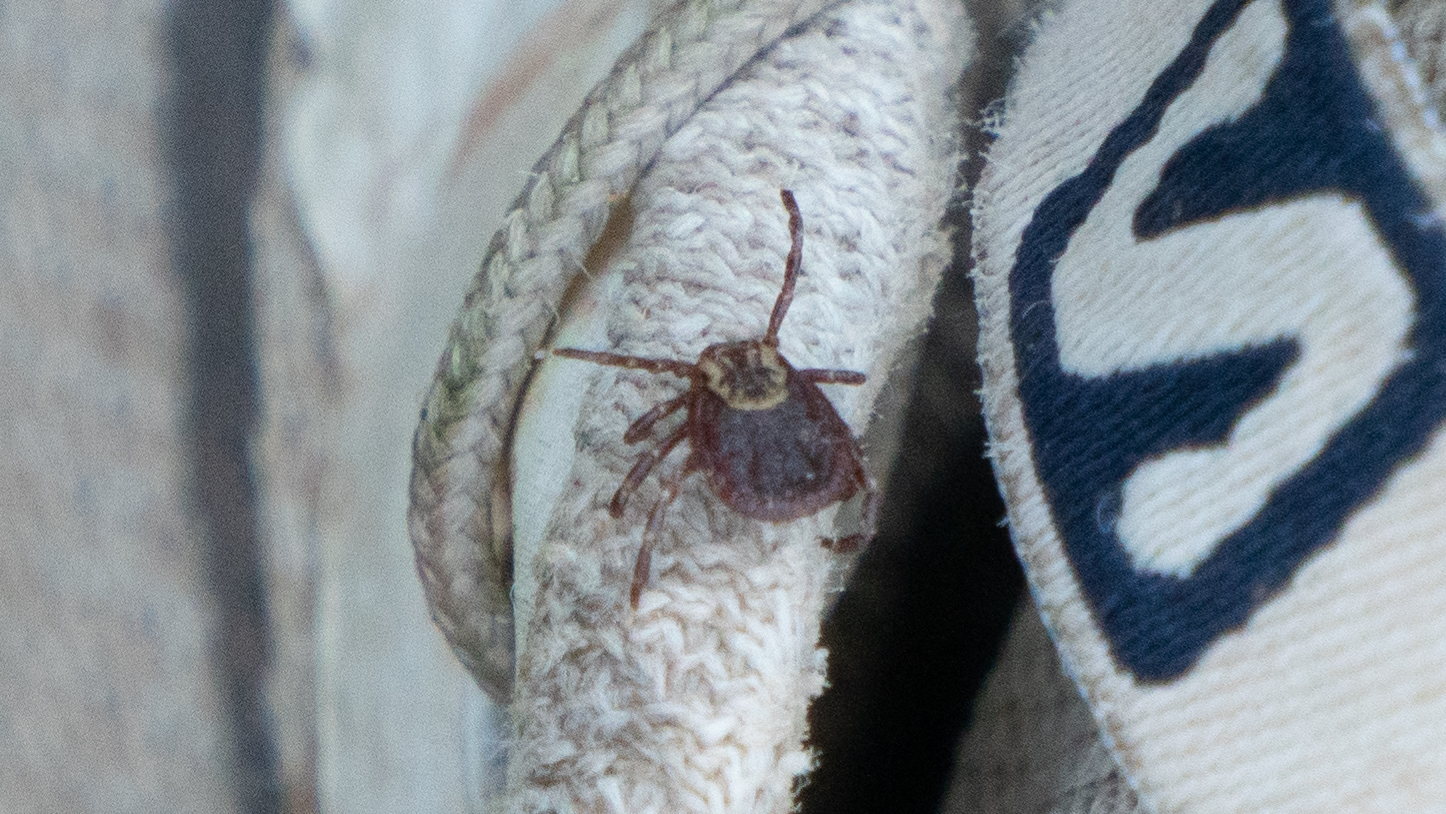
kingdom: Animalia
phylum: Arthropoda
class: Arachnida
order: Ixodida
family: Ixodidae
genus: Dermacentor
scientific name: Dermacentor variabilis
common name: American dog tick
